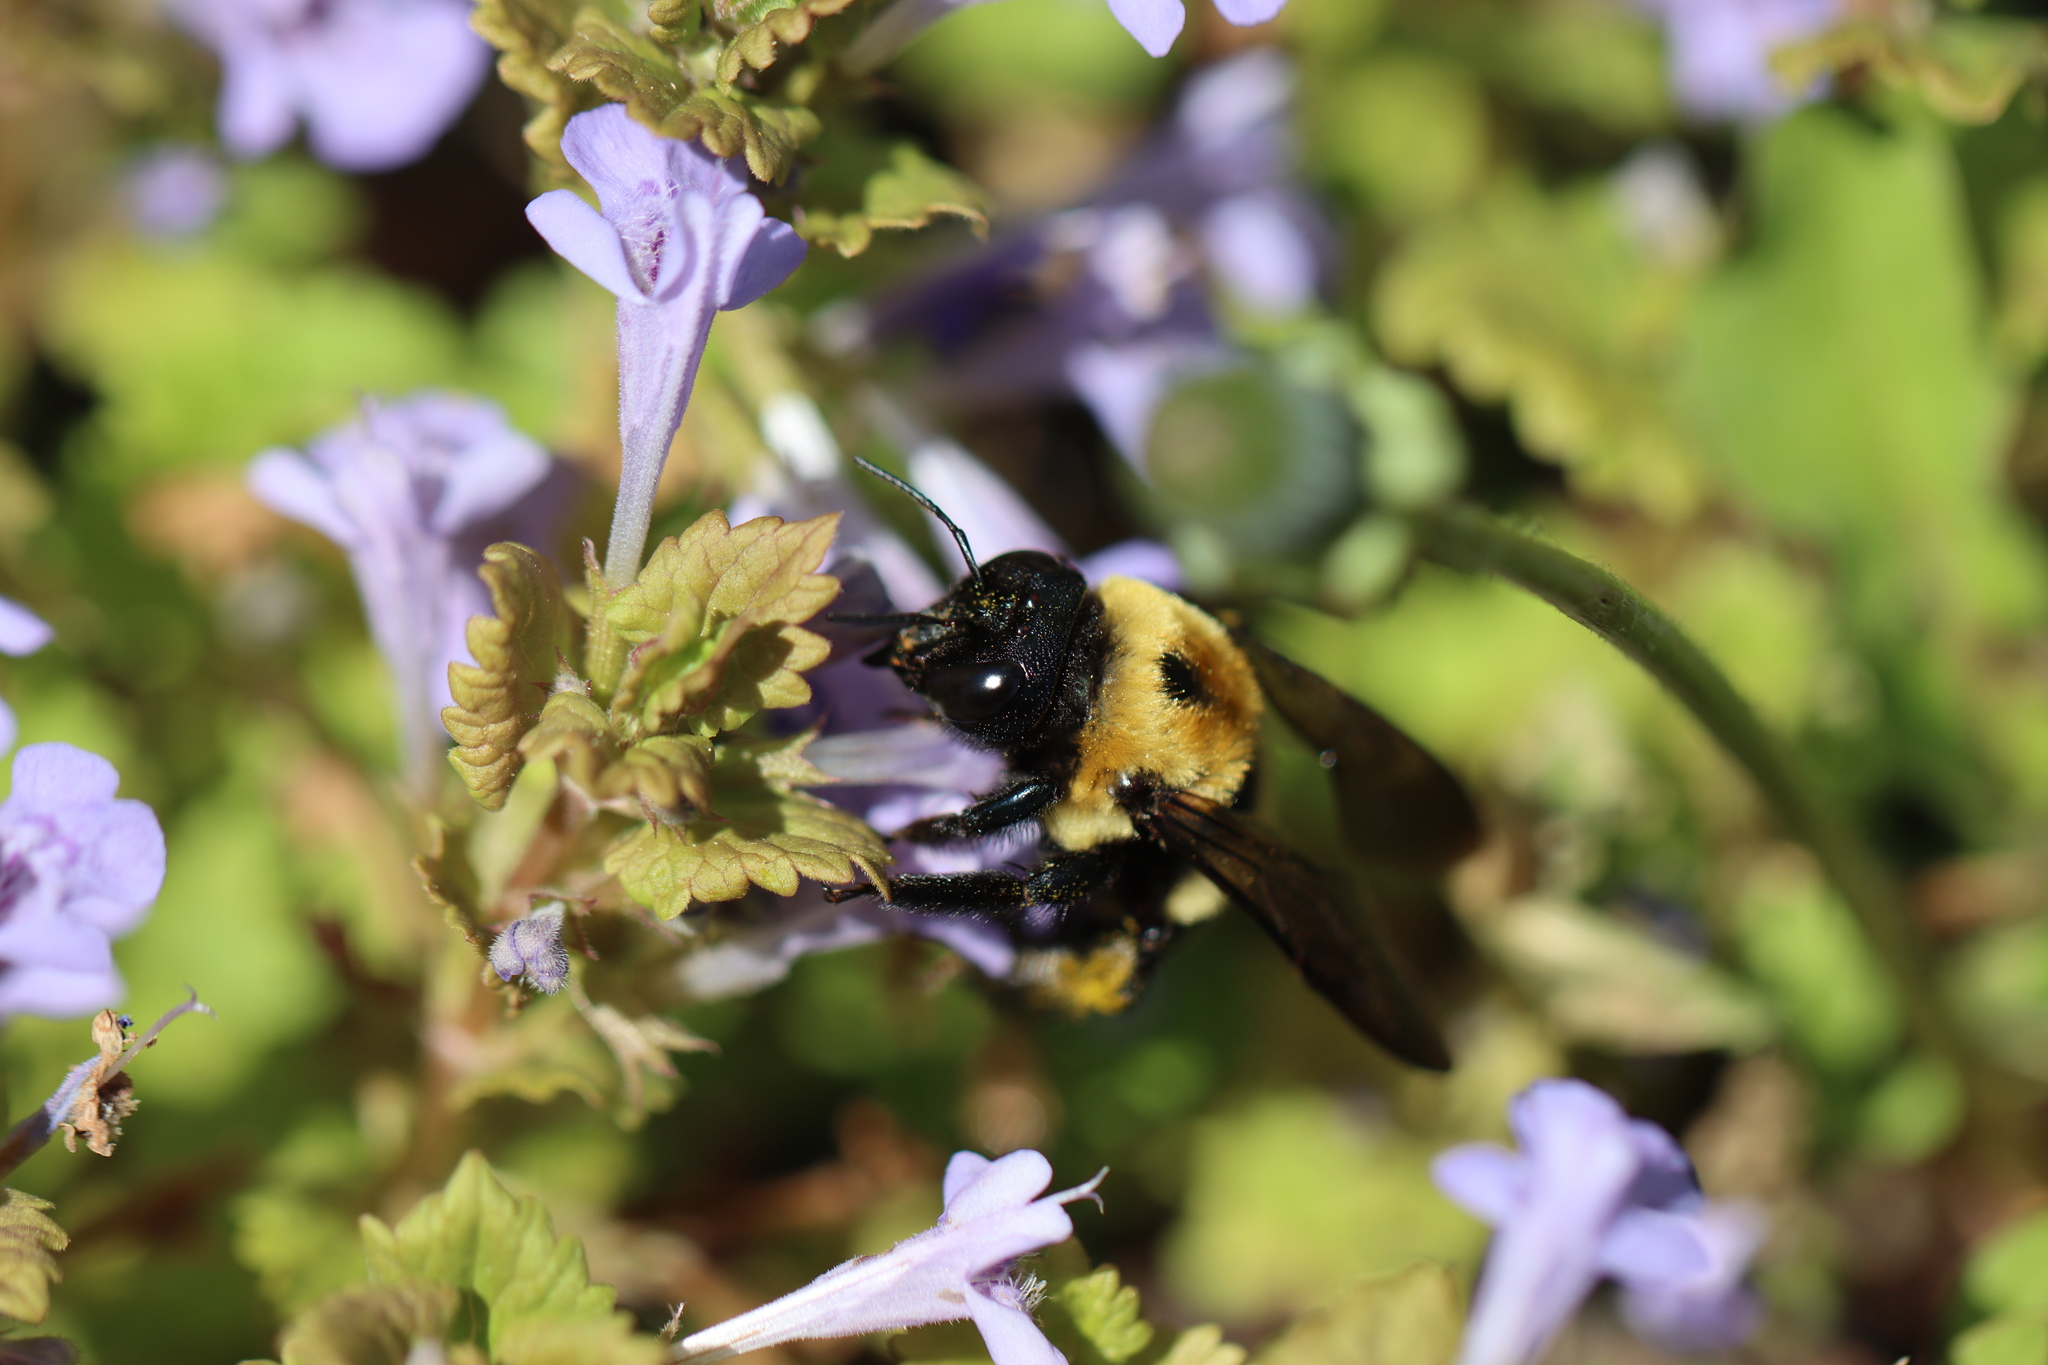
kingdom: Animalia
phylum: Arthropoda
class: Insecta
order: Hymenoptera
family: Apidae
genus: Xylocopa
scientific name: Xylocopa virginica
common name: Carpenter bee
